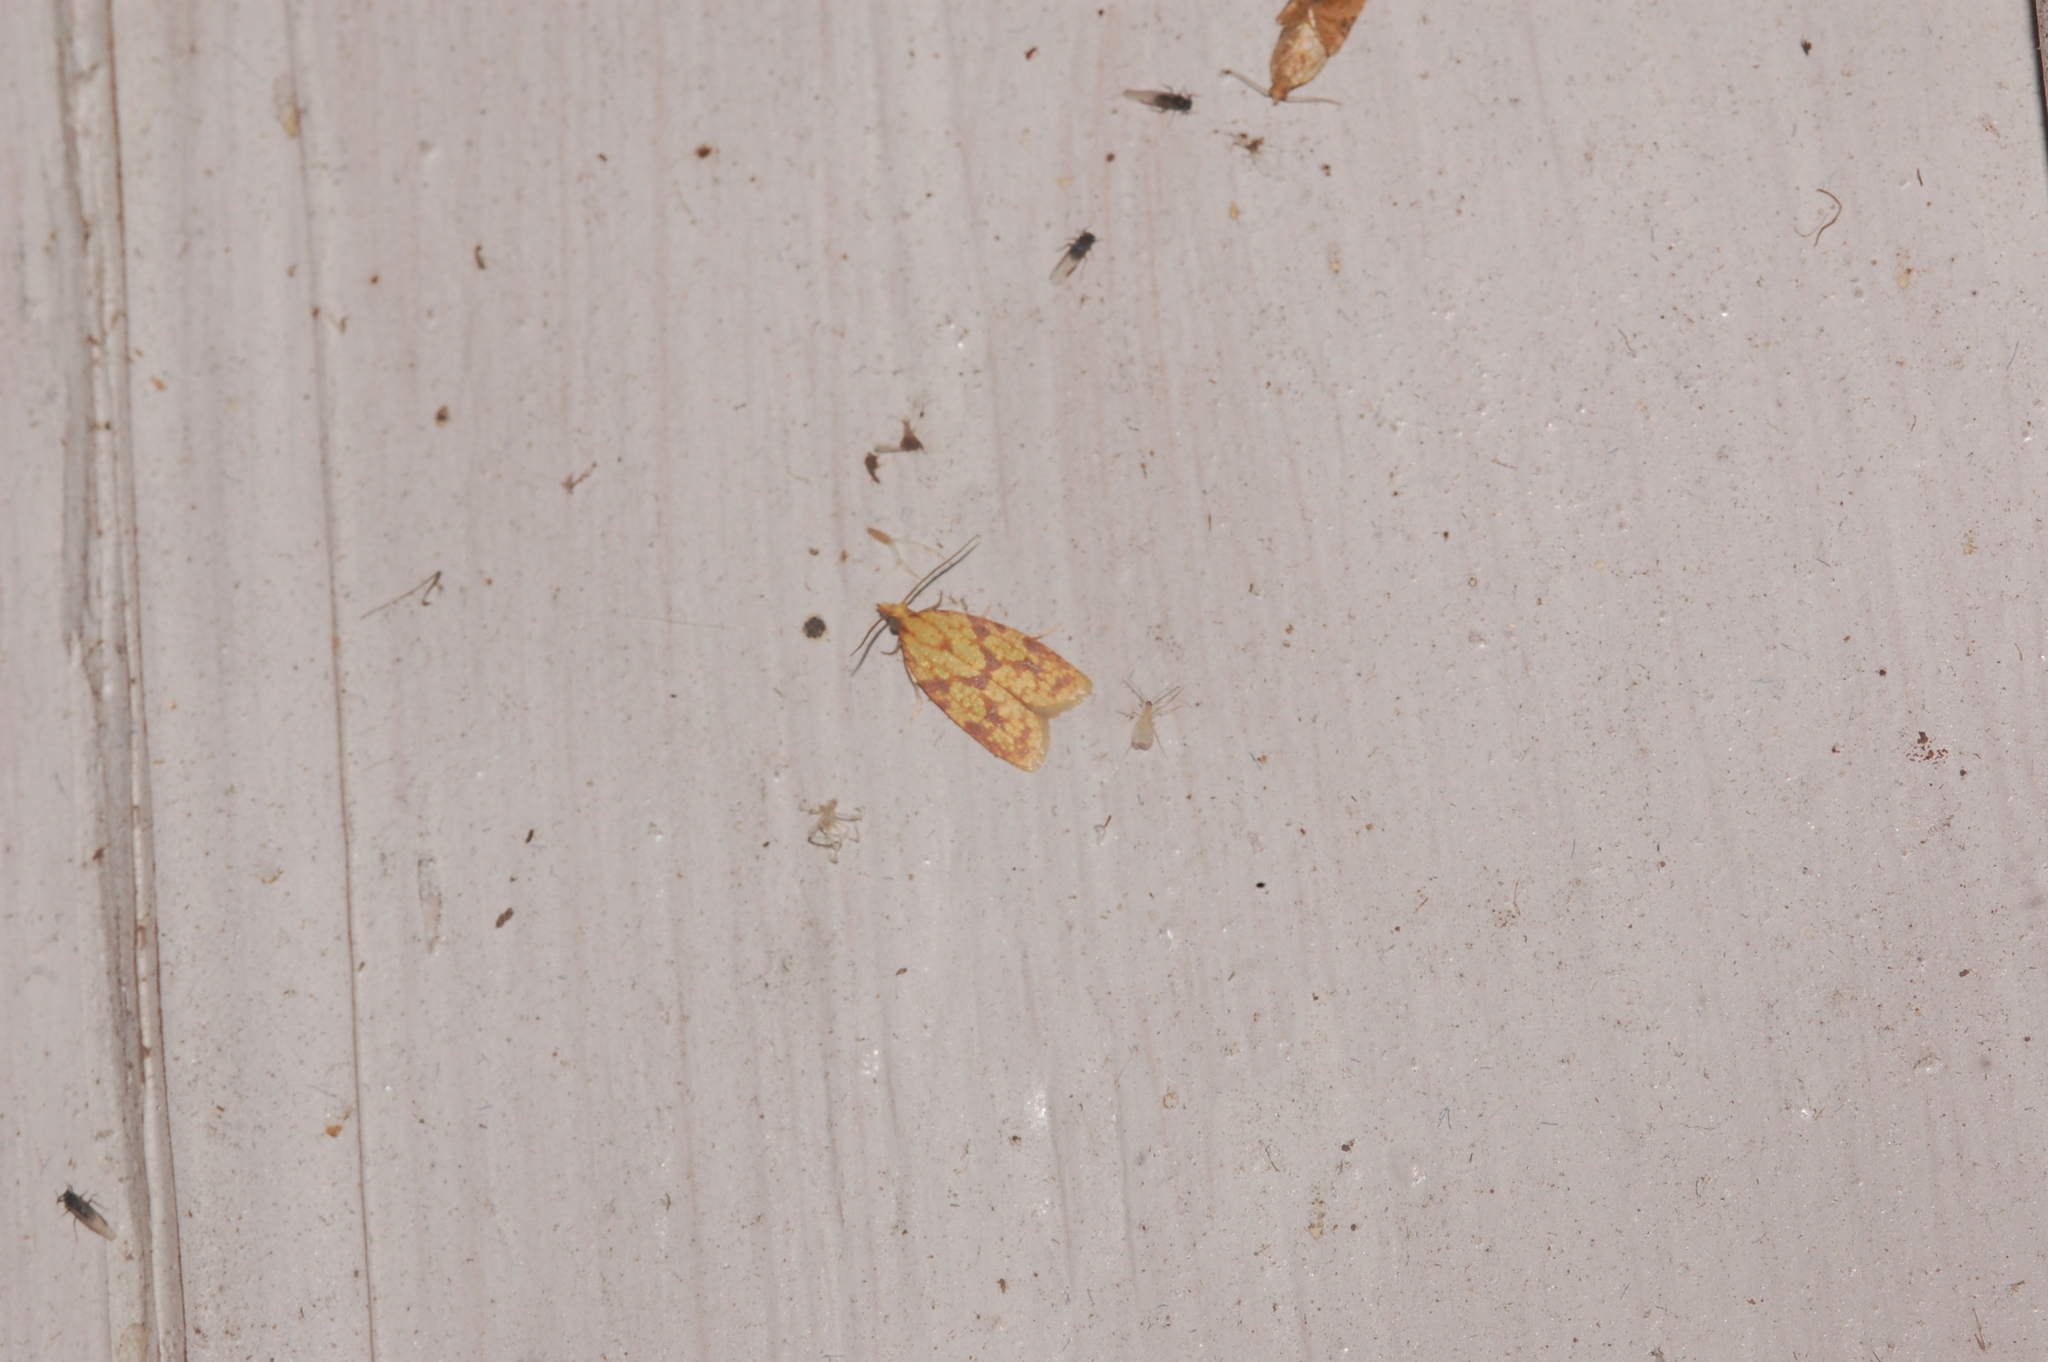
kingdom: Animalia
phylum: Arthropoda
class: Insecta
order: Lepidoptera
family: Tortricidae
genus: Sparganothis
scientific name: Sparganothis sulfureana
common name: Sparganothis fruitworm moth
